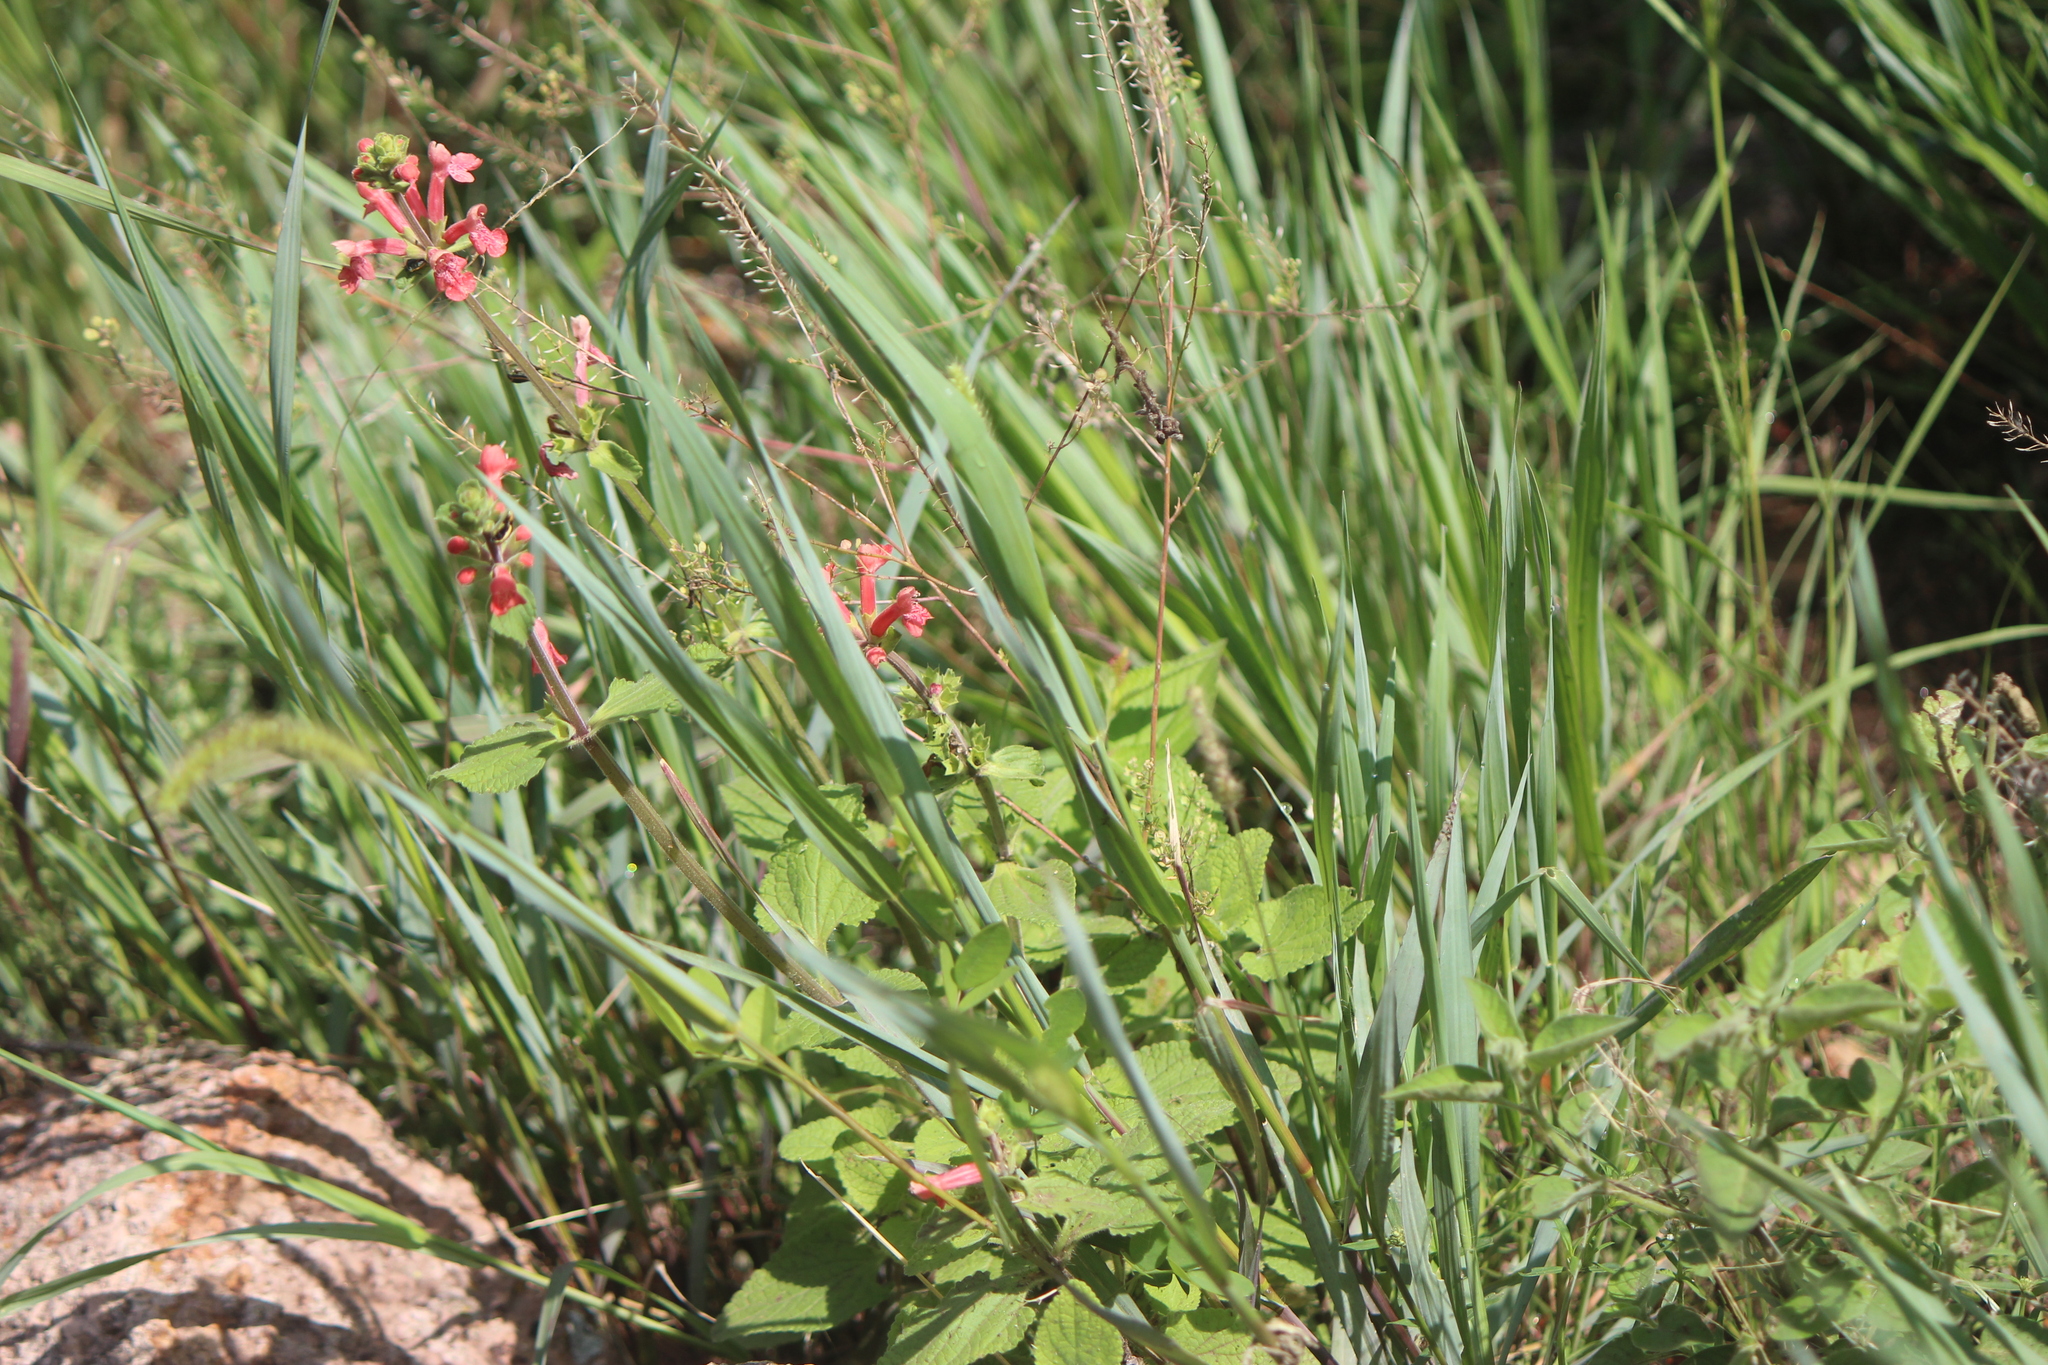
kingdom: Plantae
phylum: Tracheophyta
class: Magnoliopsida
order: Lamiales
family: Lamiaceae
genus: Stachys
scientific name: Stachys coccinea
